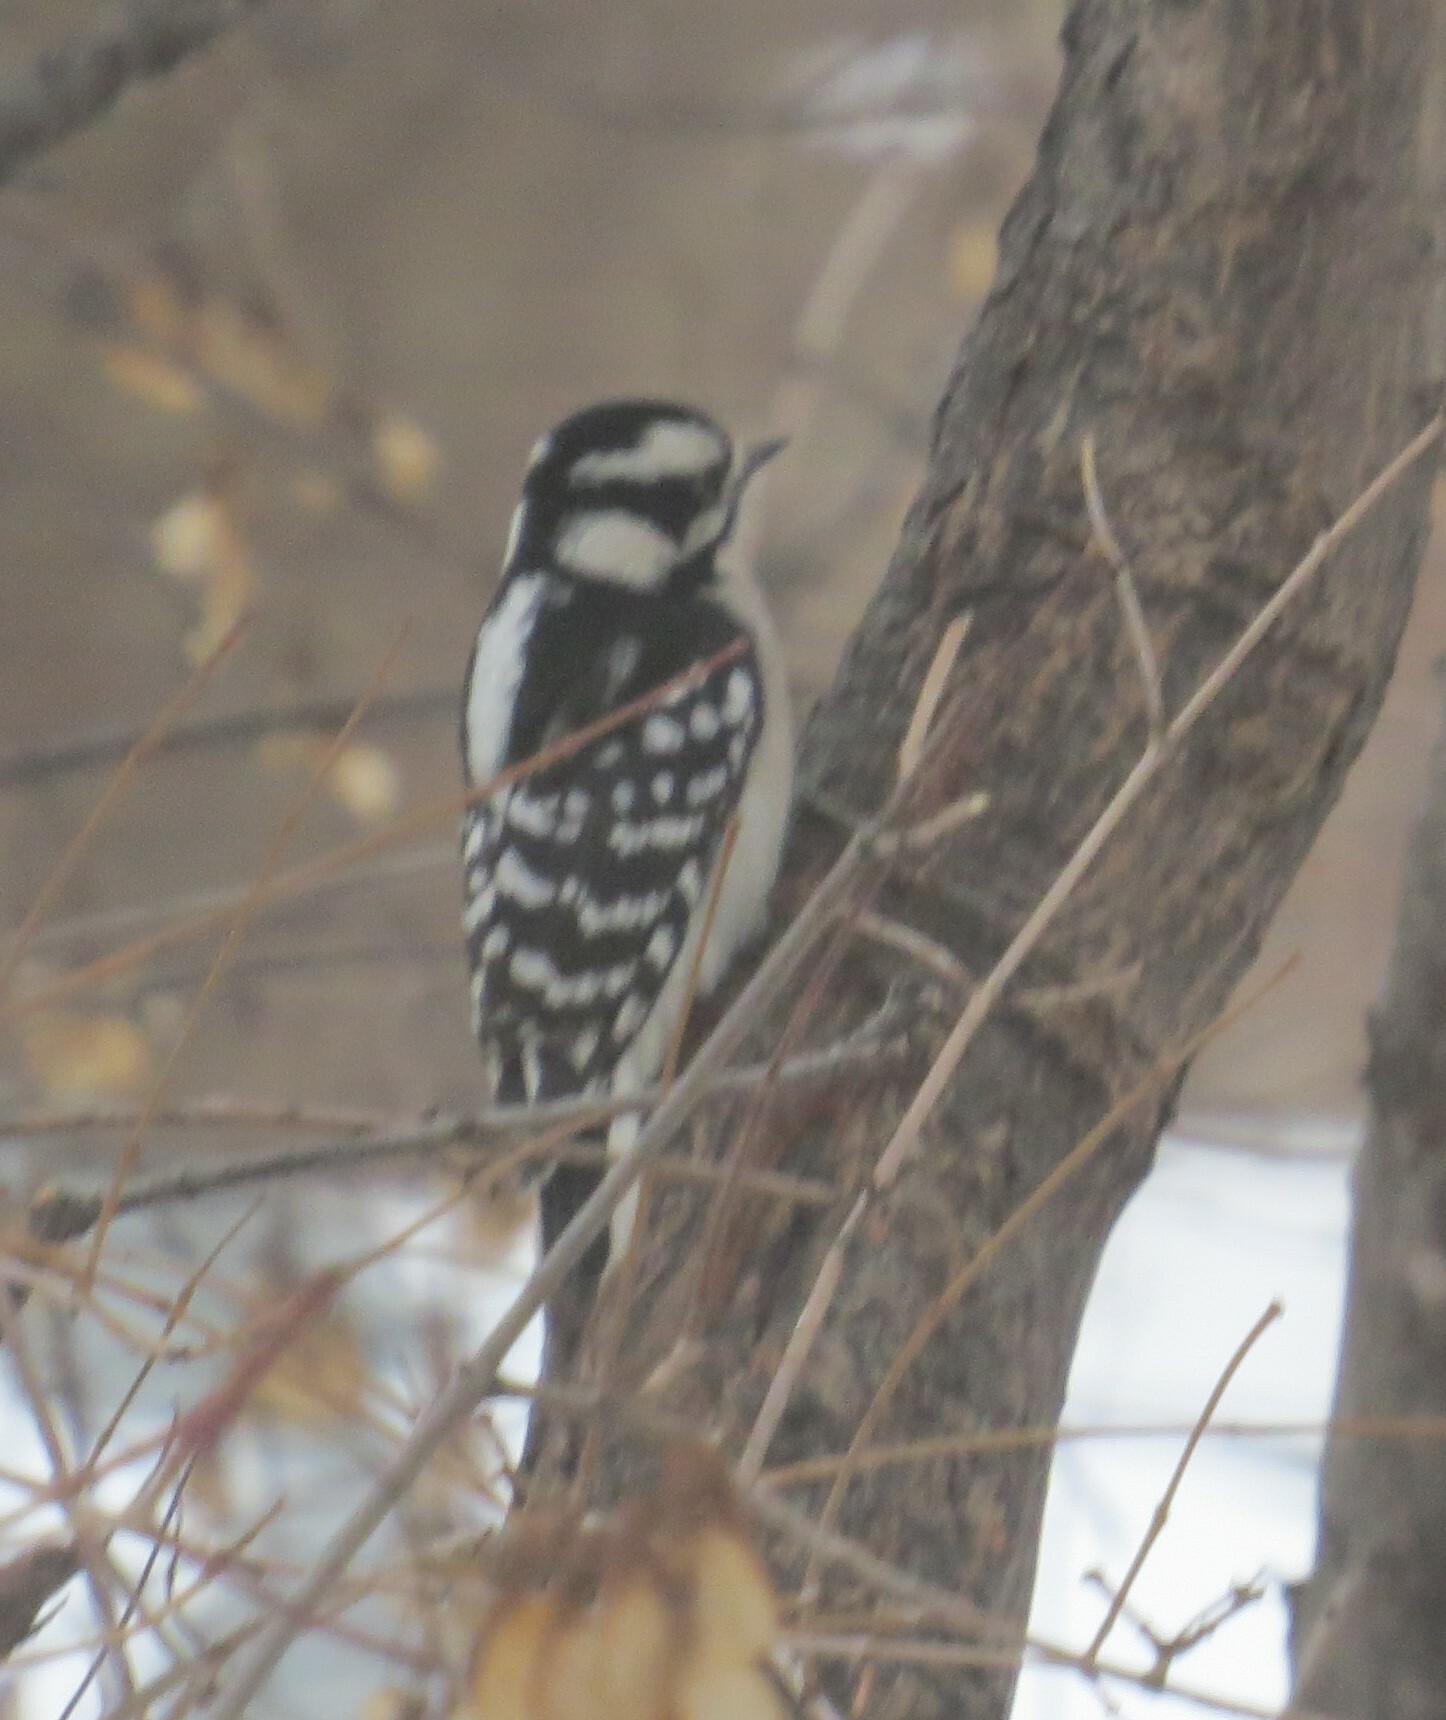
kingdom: Animalia
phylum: Chordata
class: Aves
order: Piciformes
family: Picidae
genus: Dryobates
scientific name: Dryobates pubescens
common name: Downy woodpecker
